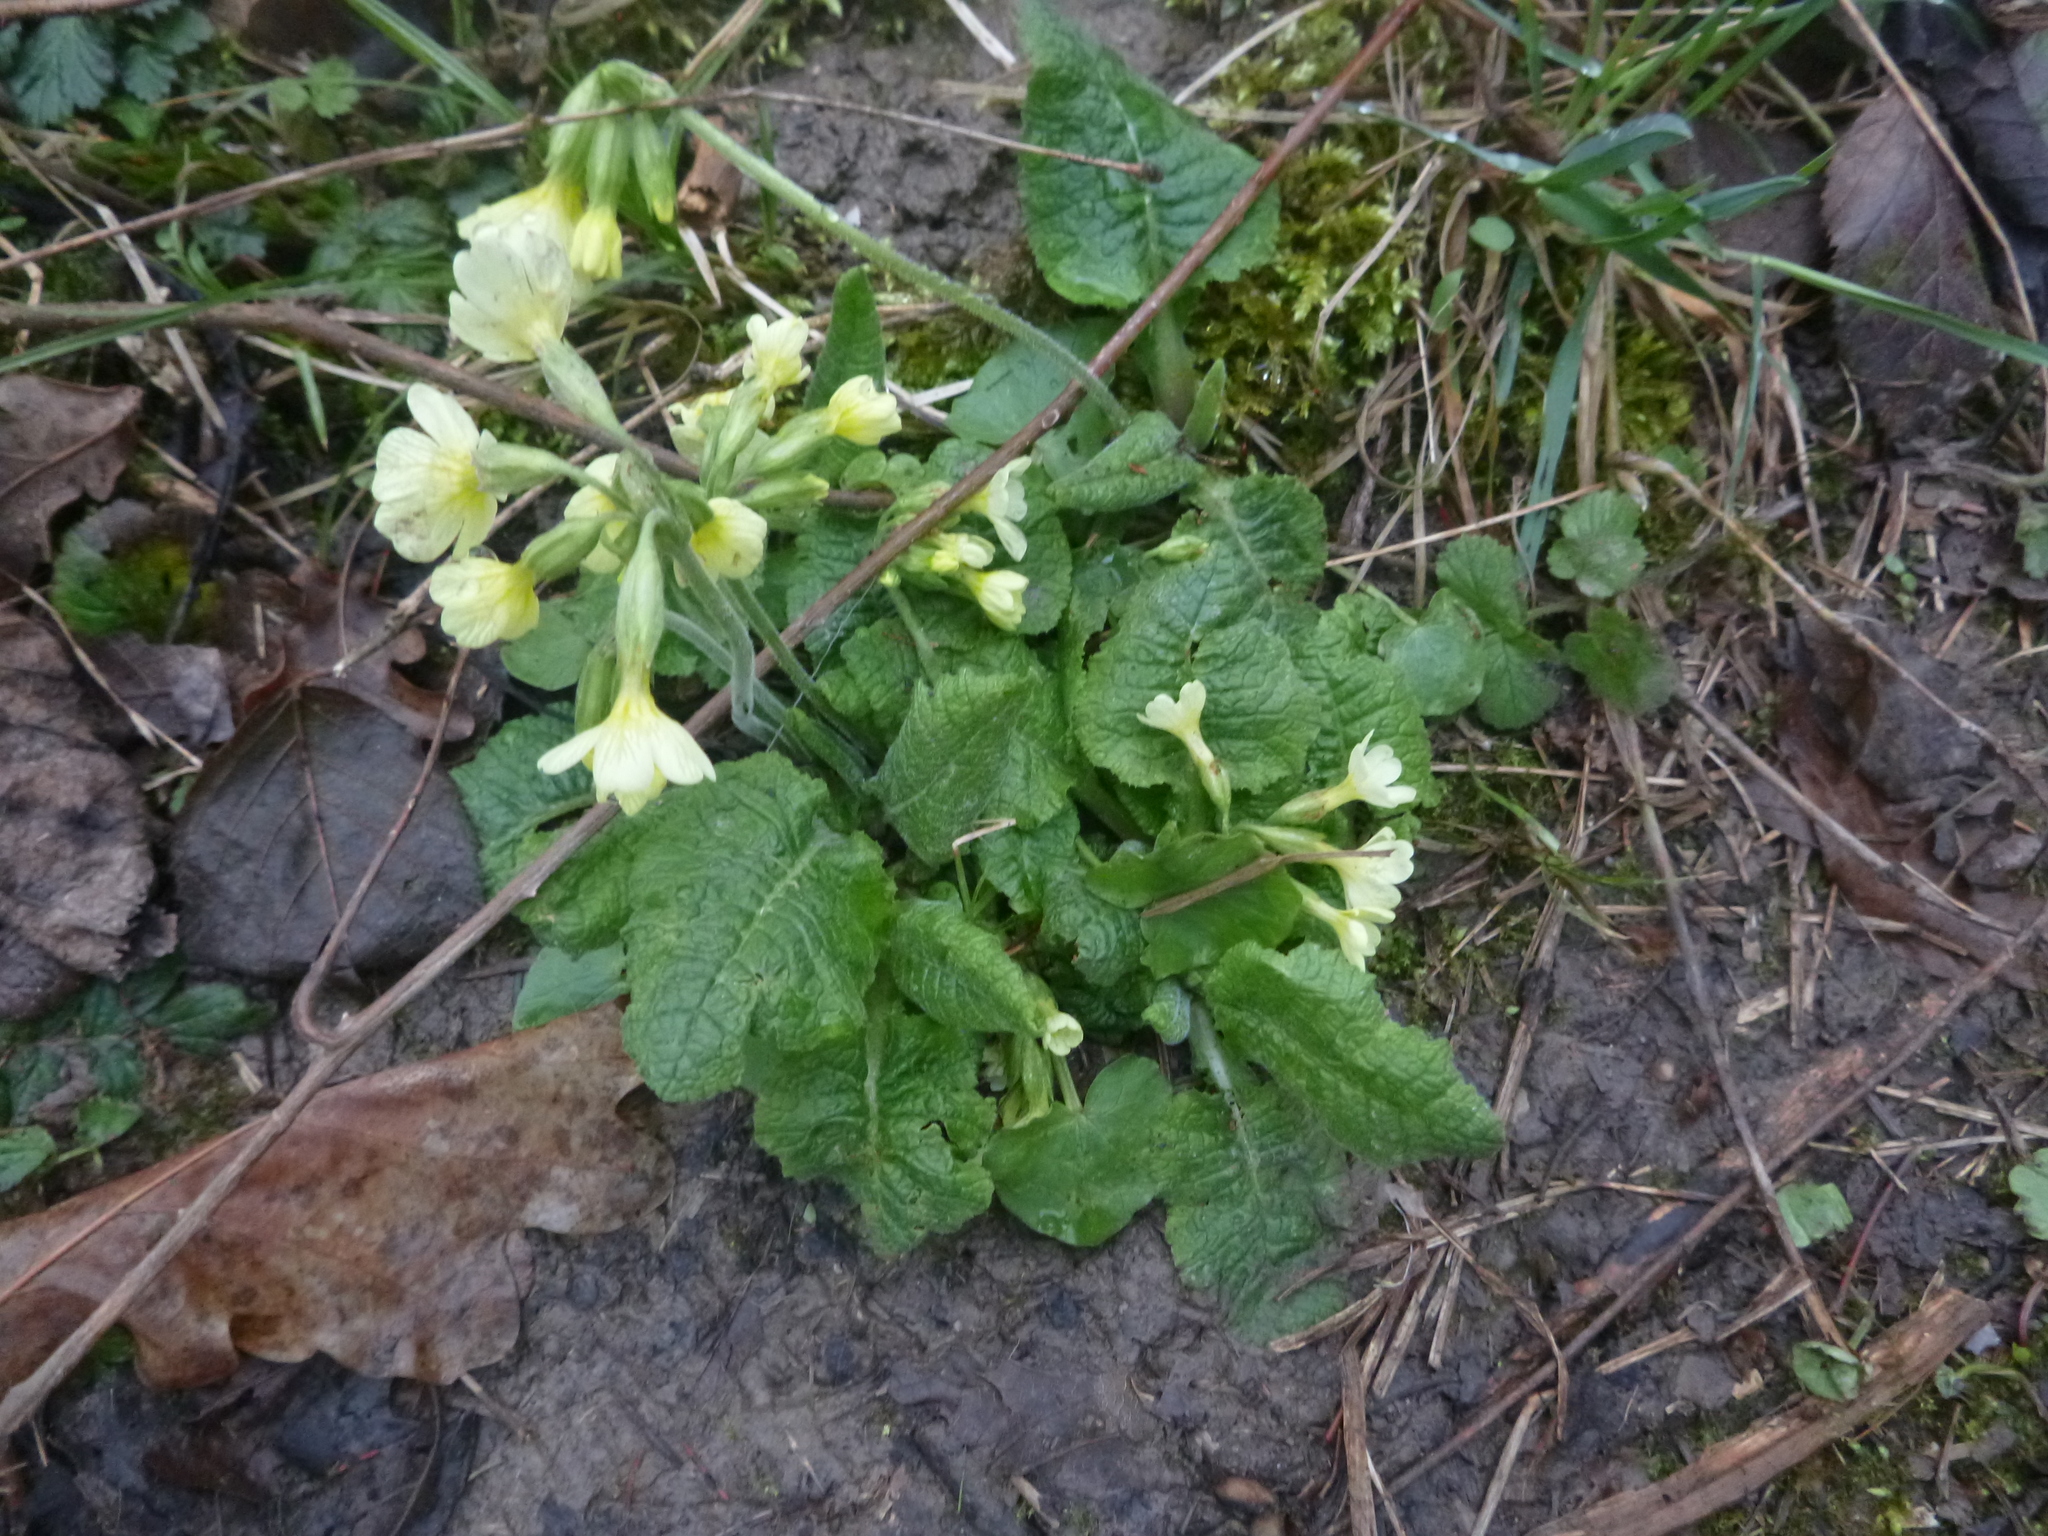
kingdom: Plantae
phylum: Tracheophyta
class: Magnoliopsida
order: Ericales
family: Primulaceae
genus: Primula
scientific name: Primula elatior
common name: Oxlip
